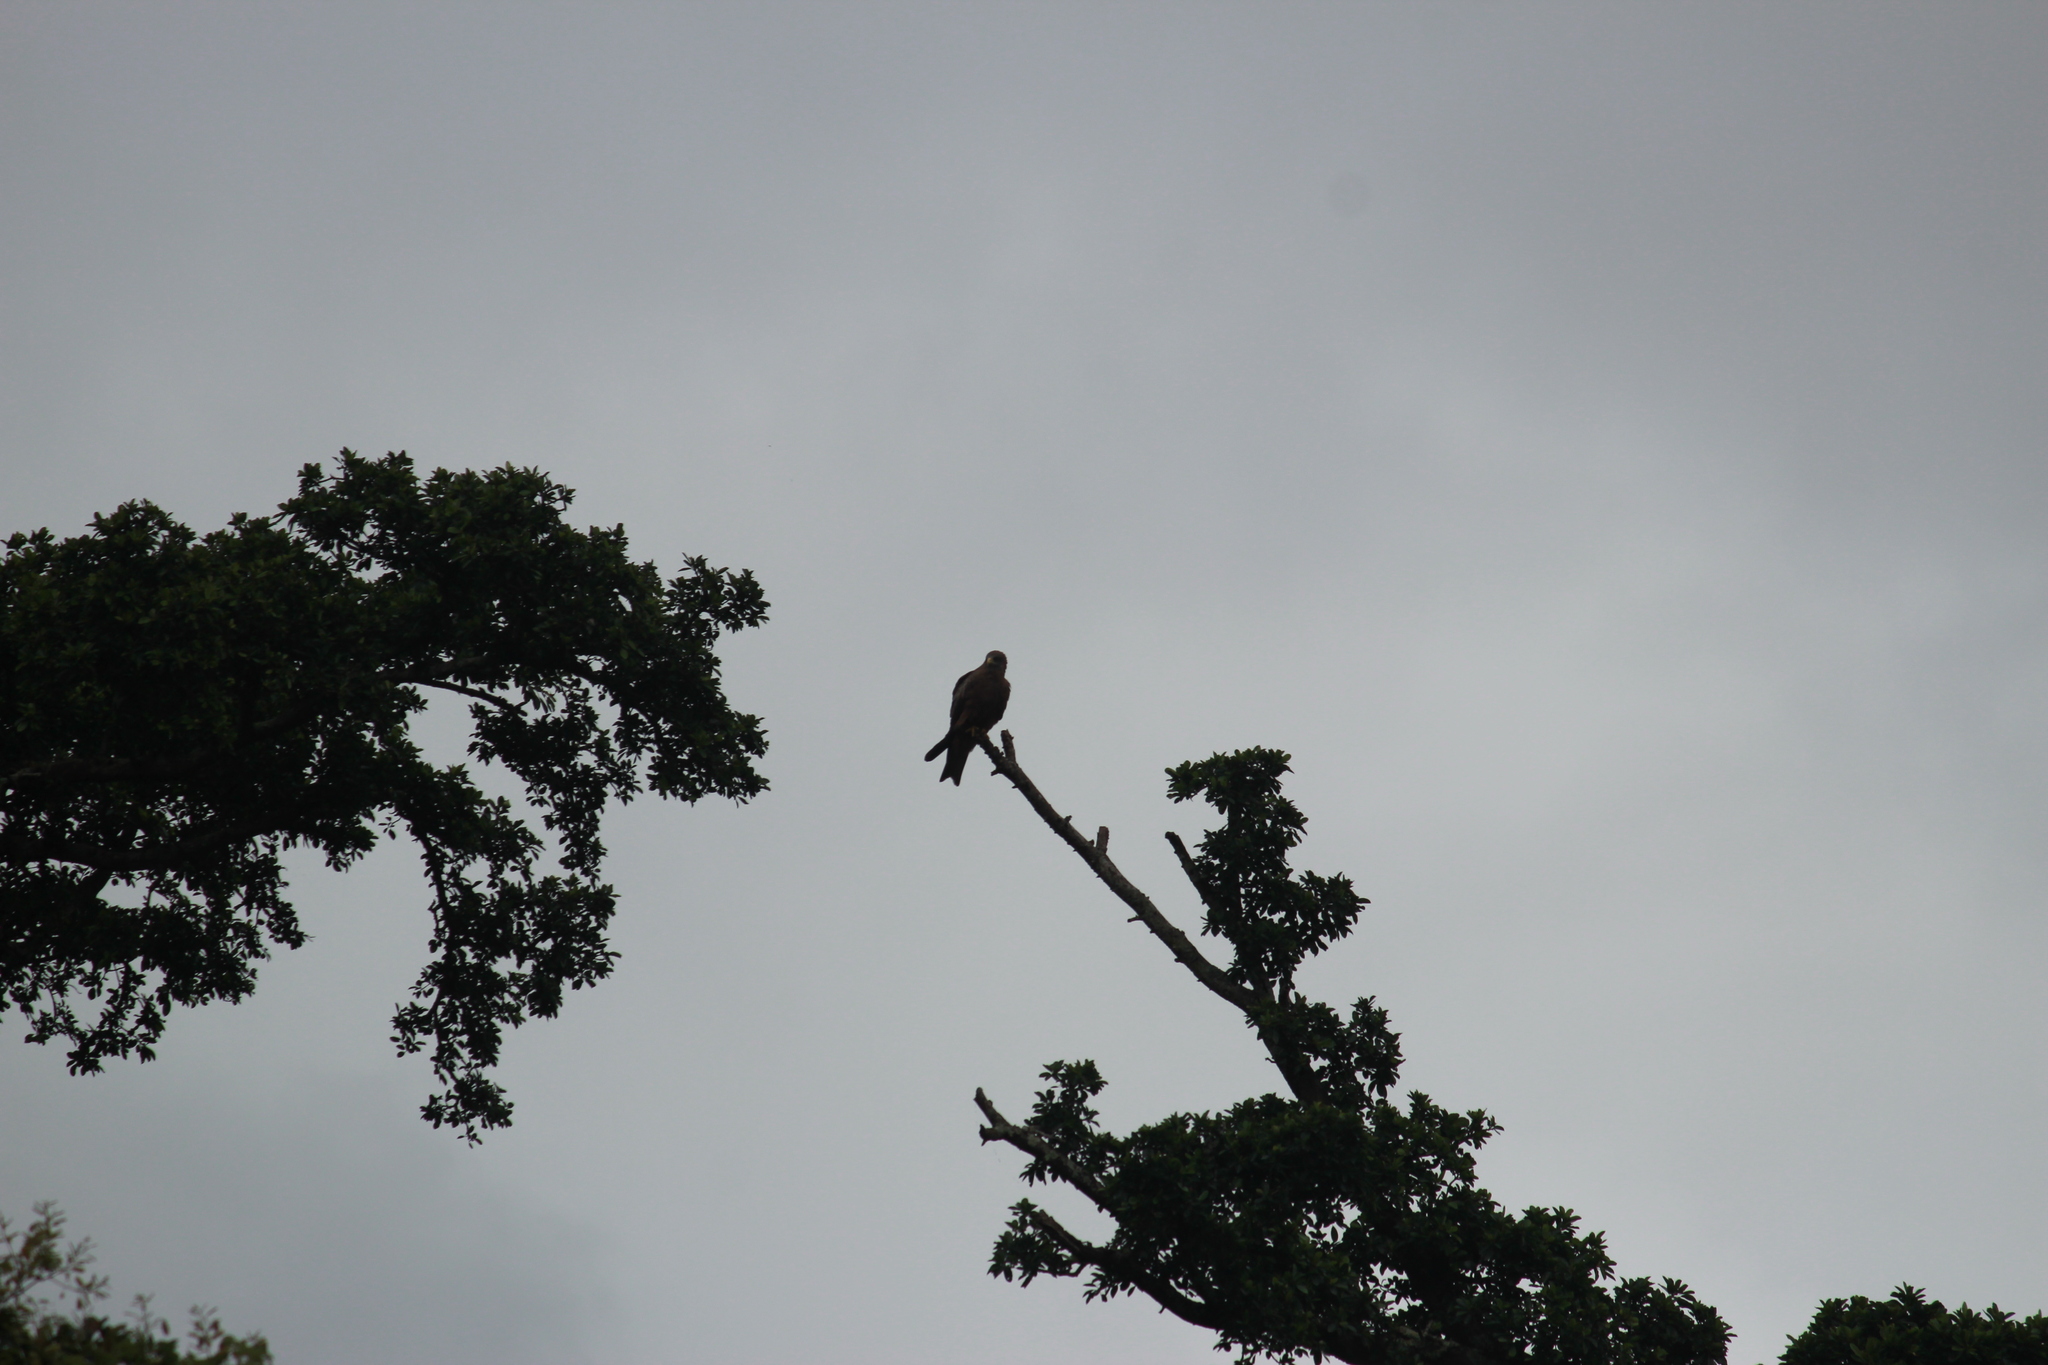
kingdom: Animalia
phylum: Chordata
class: Aves
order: Accipitriformes
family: Accipitridae
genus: Milvus
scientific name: Milvus migrans
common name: Black kite
